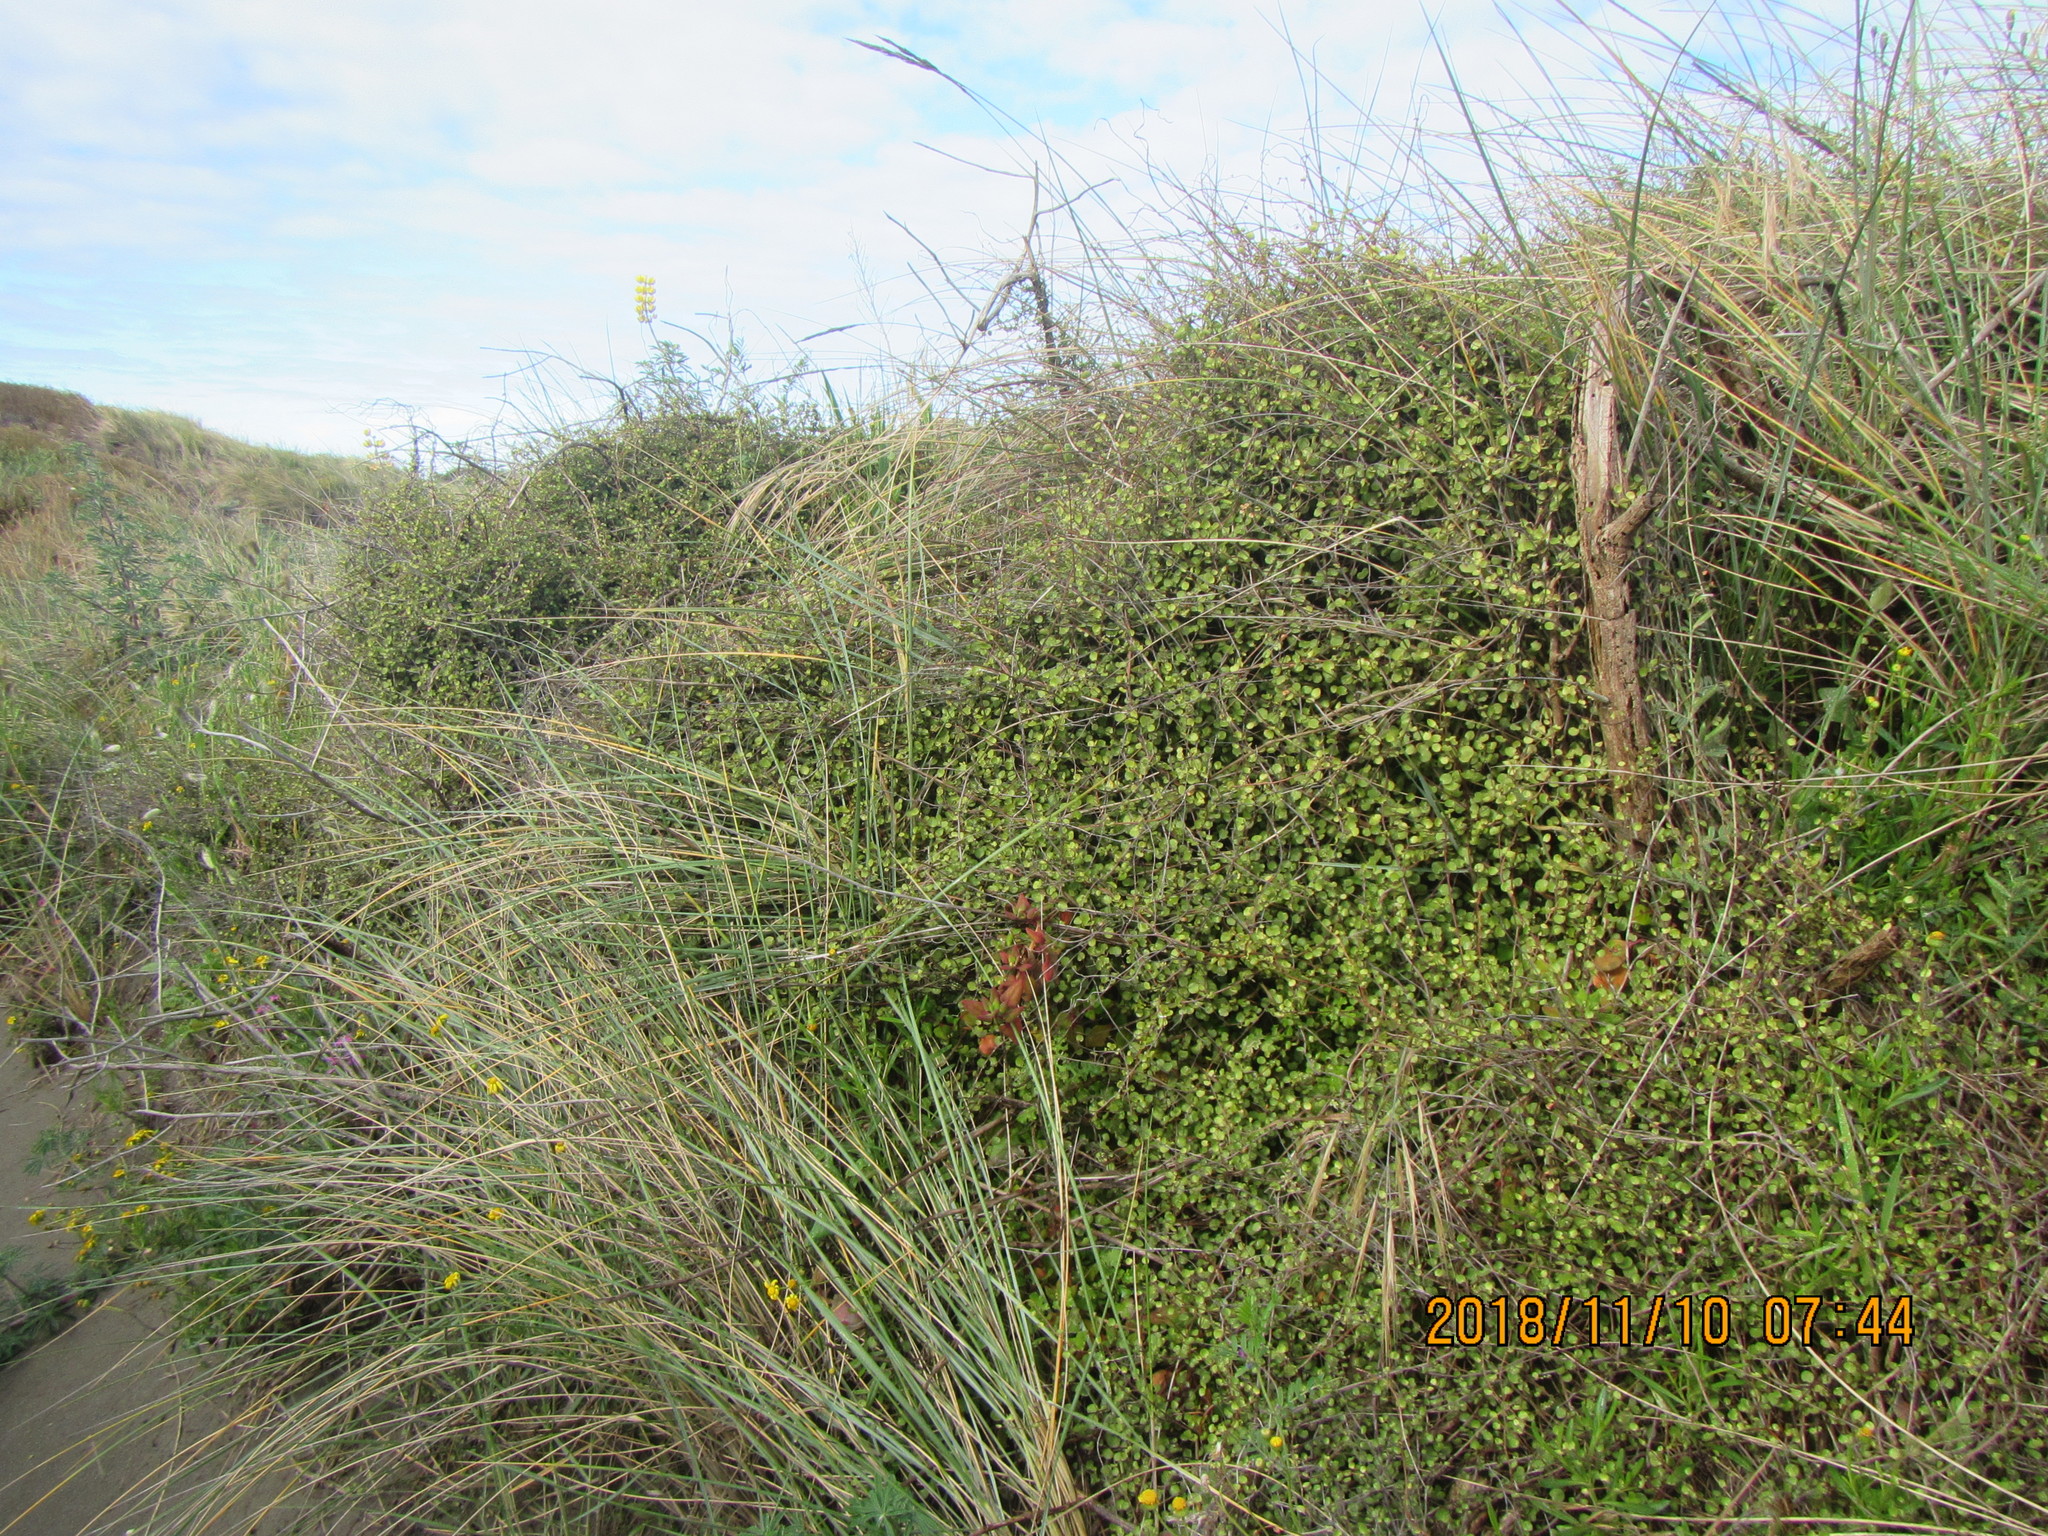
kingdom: Plantae
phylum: Tracheophyta
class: Magnoliopsida
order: Caryophyllales
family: Polygonaceae
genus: Muehlenbeckia
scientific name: Muehlenbeckia complexa
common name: Wireplant
